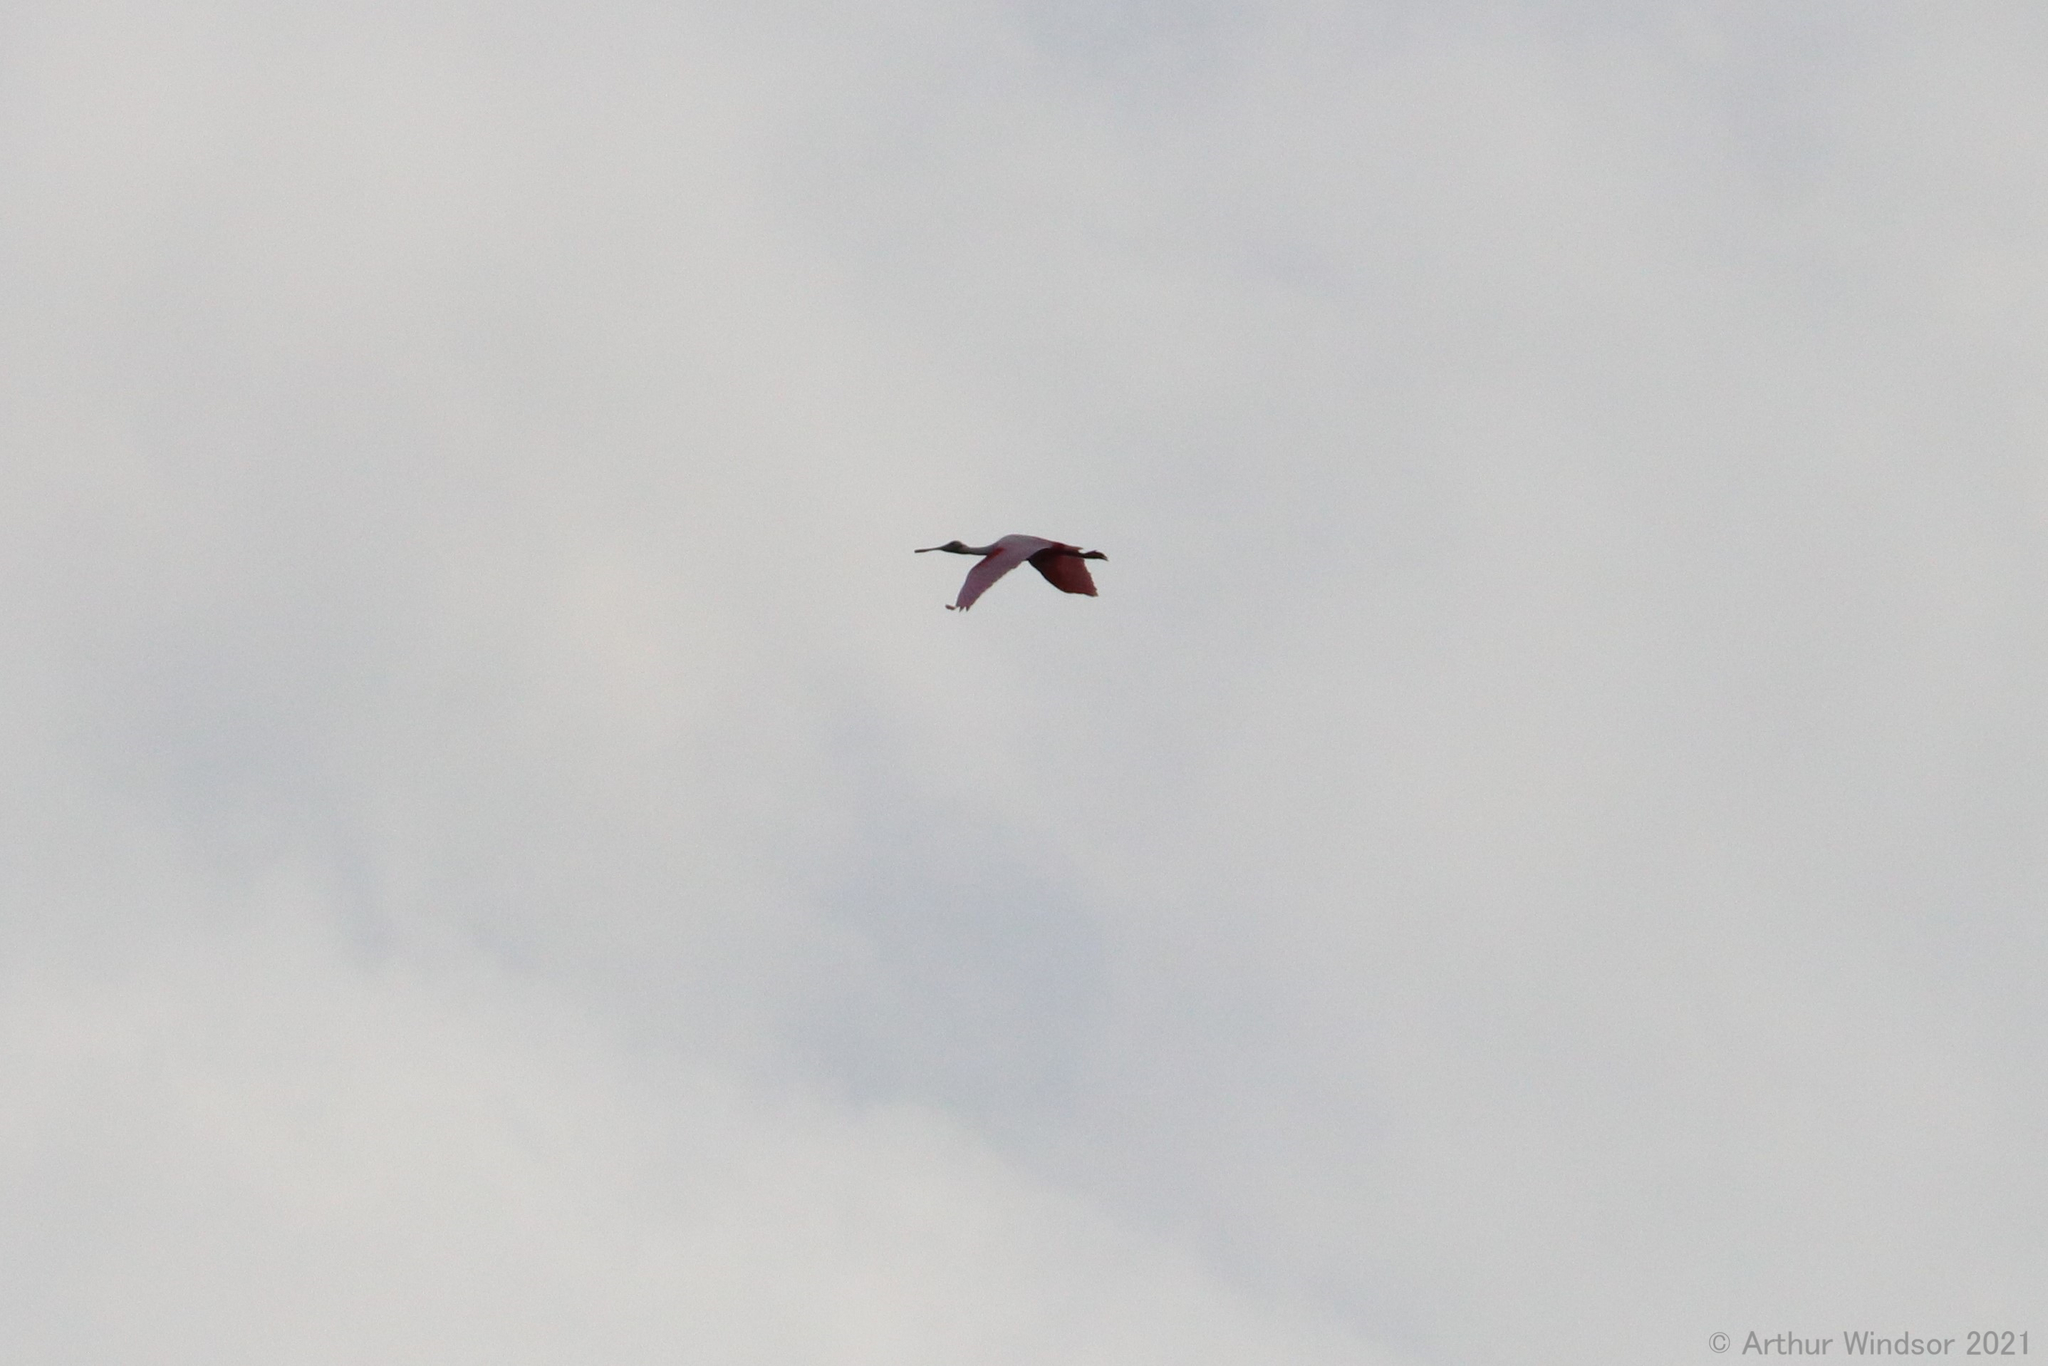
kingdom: Animalia
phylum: Chordata
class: Aves
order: Pelecaniformes
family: Threskiornithidae
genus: Platalea
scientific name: Platalea ajaja
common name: Roseate spoonbill
